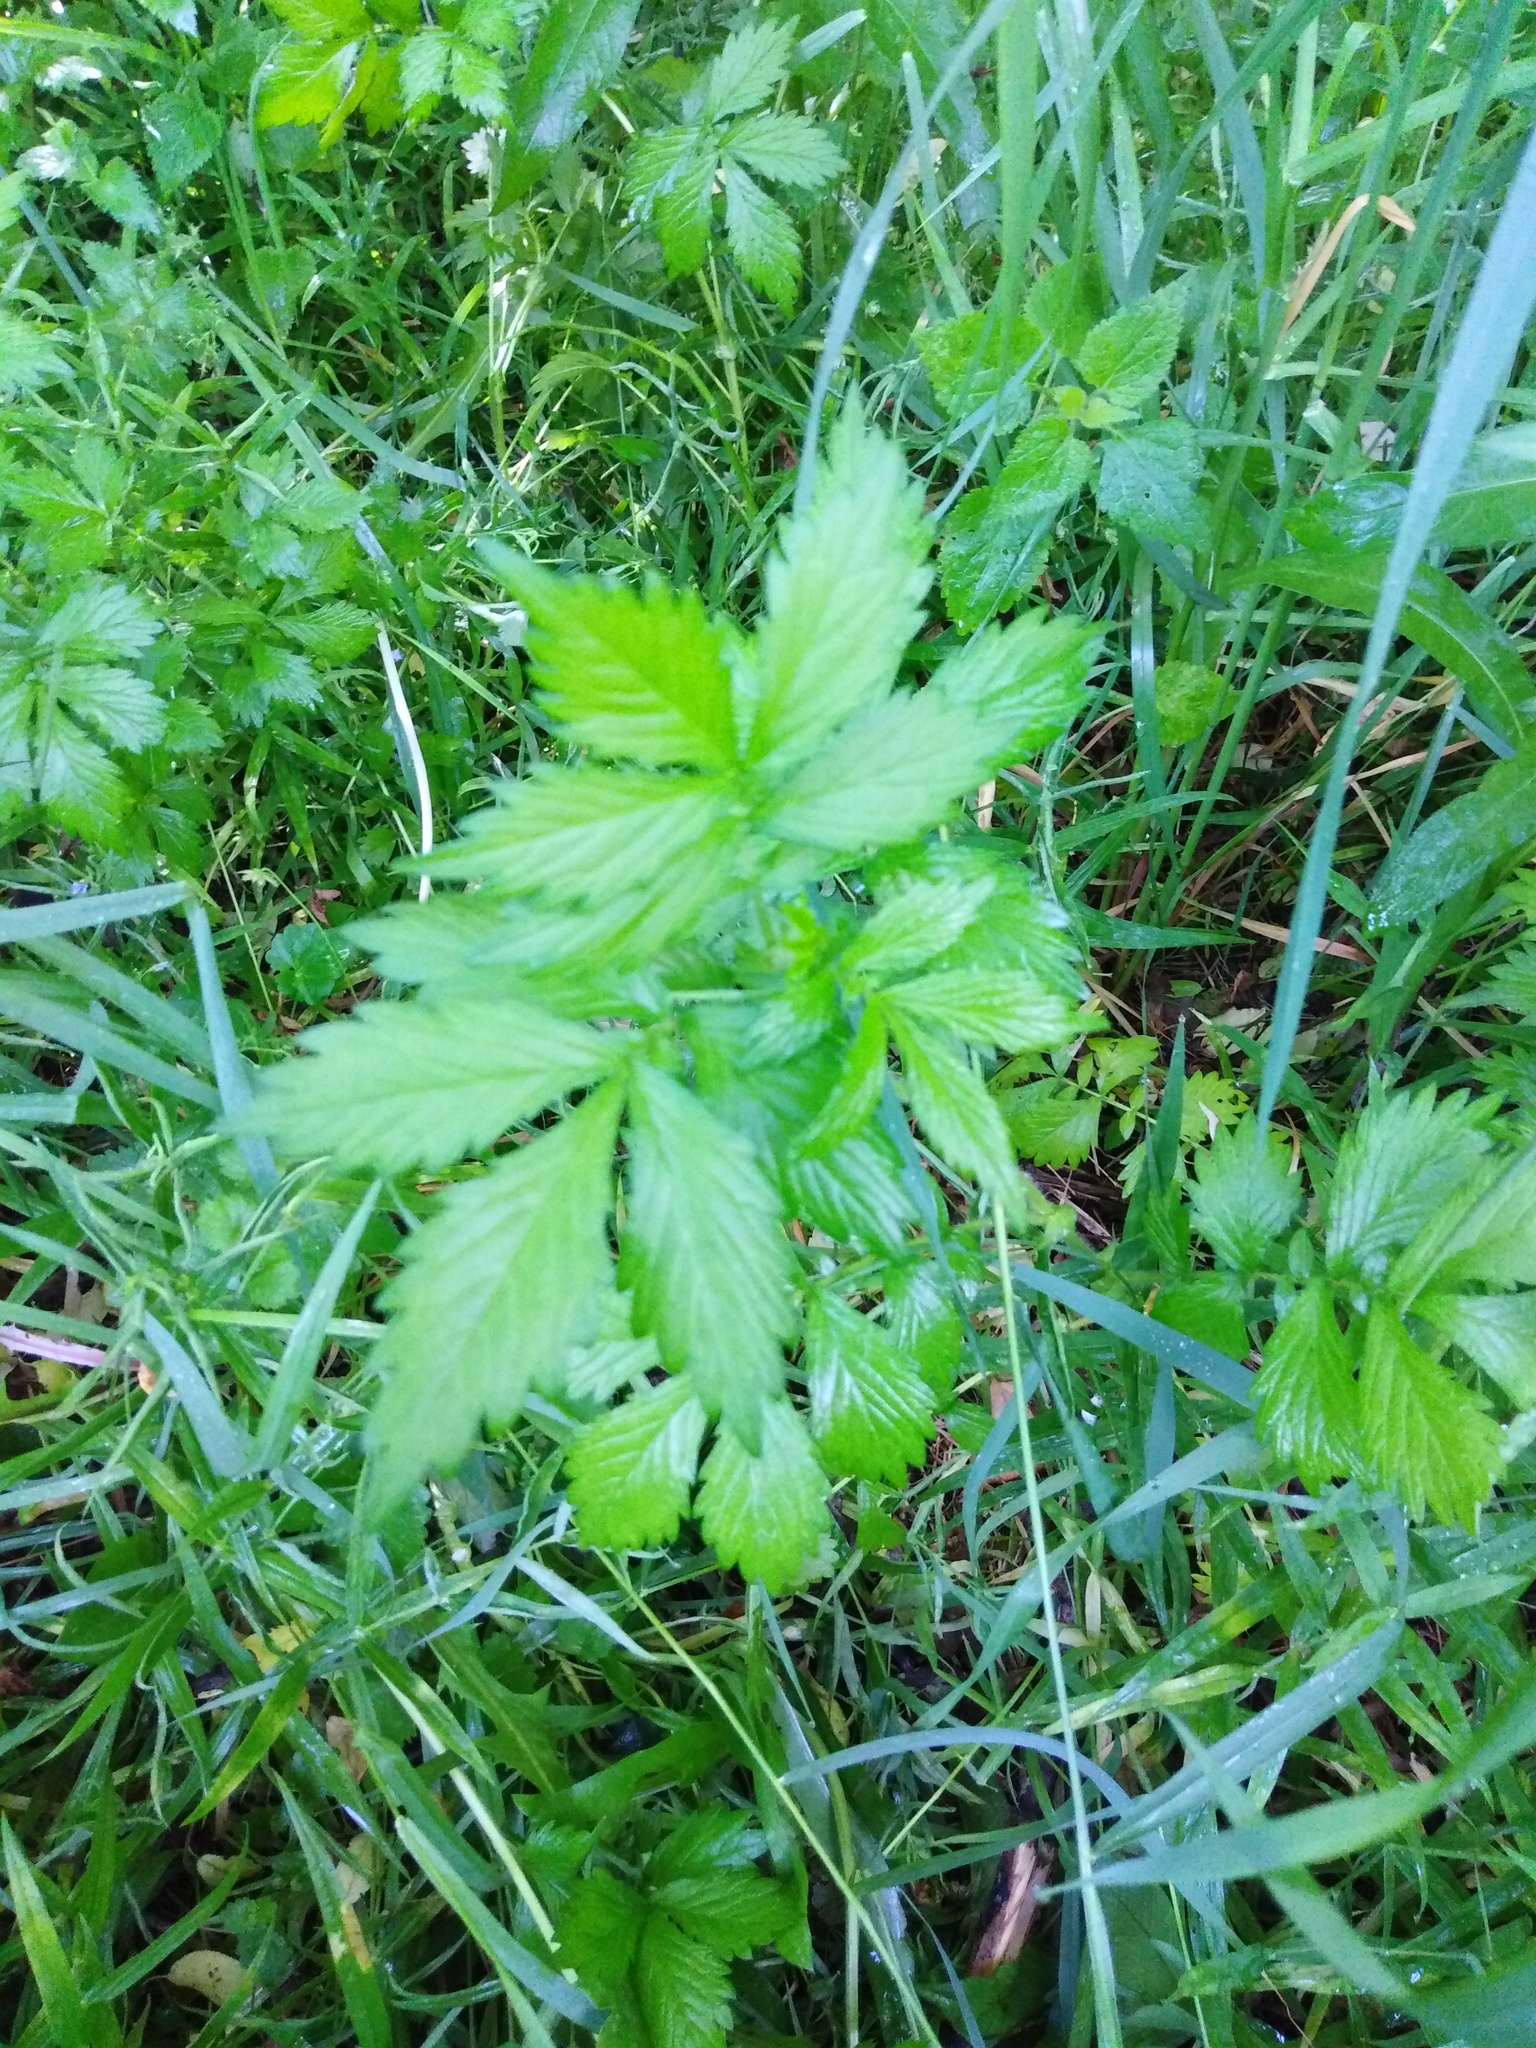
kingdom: Plantae
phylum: Tracheophyta
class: Magnoliopsida
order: Rosales
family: Rosaceae
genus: Agrimonia
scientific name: Agrimonia pilosa
